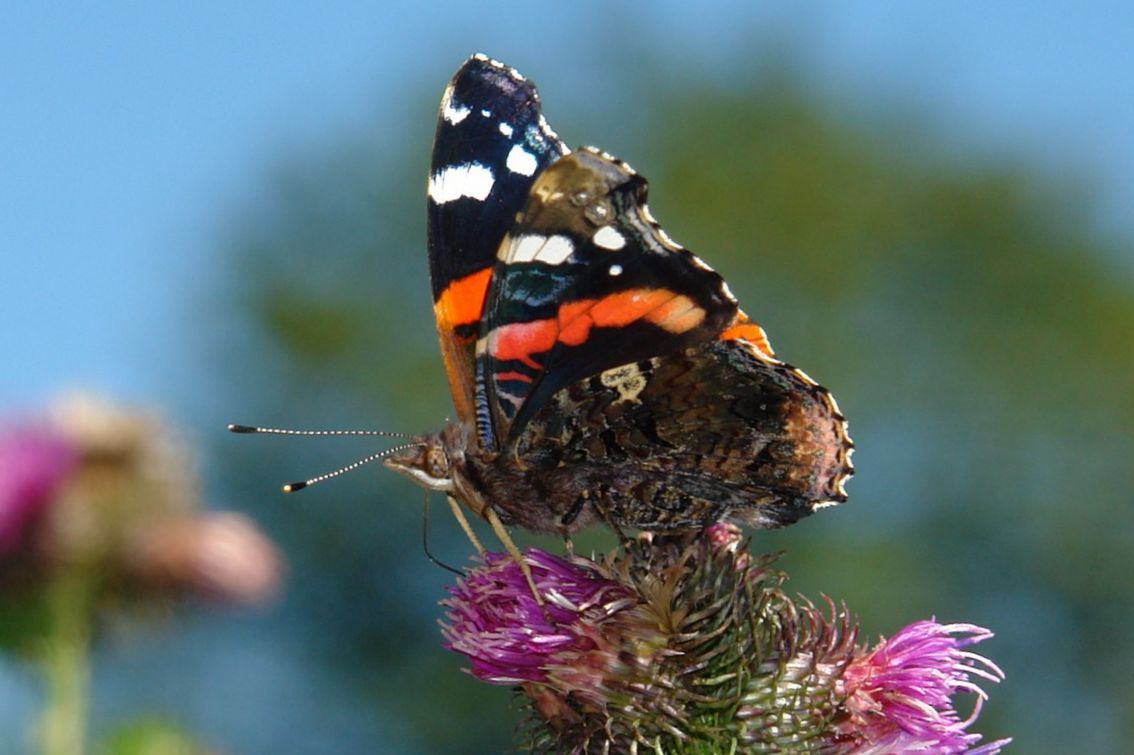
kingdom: Animalia
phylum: Arthropoda
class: Insecta
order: Lepidoptera
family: Nymphalidae
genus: Vanessa
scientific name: Vanessa atalanta
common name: Red admiral
